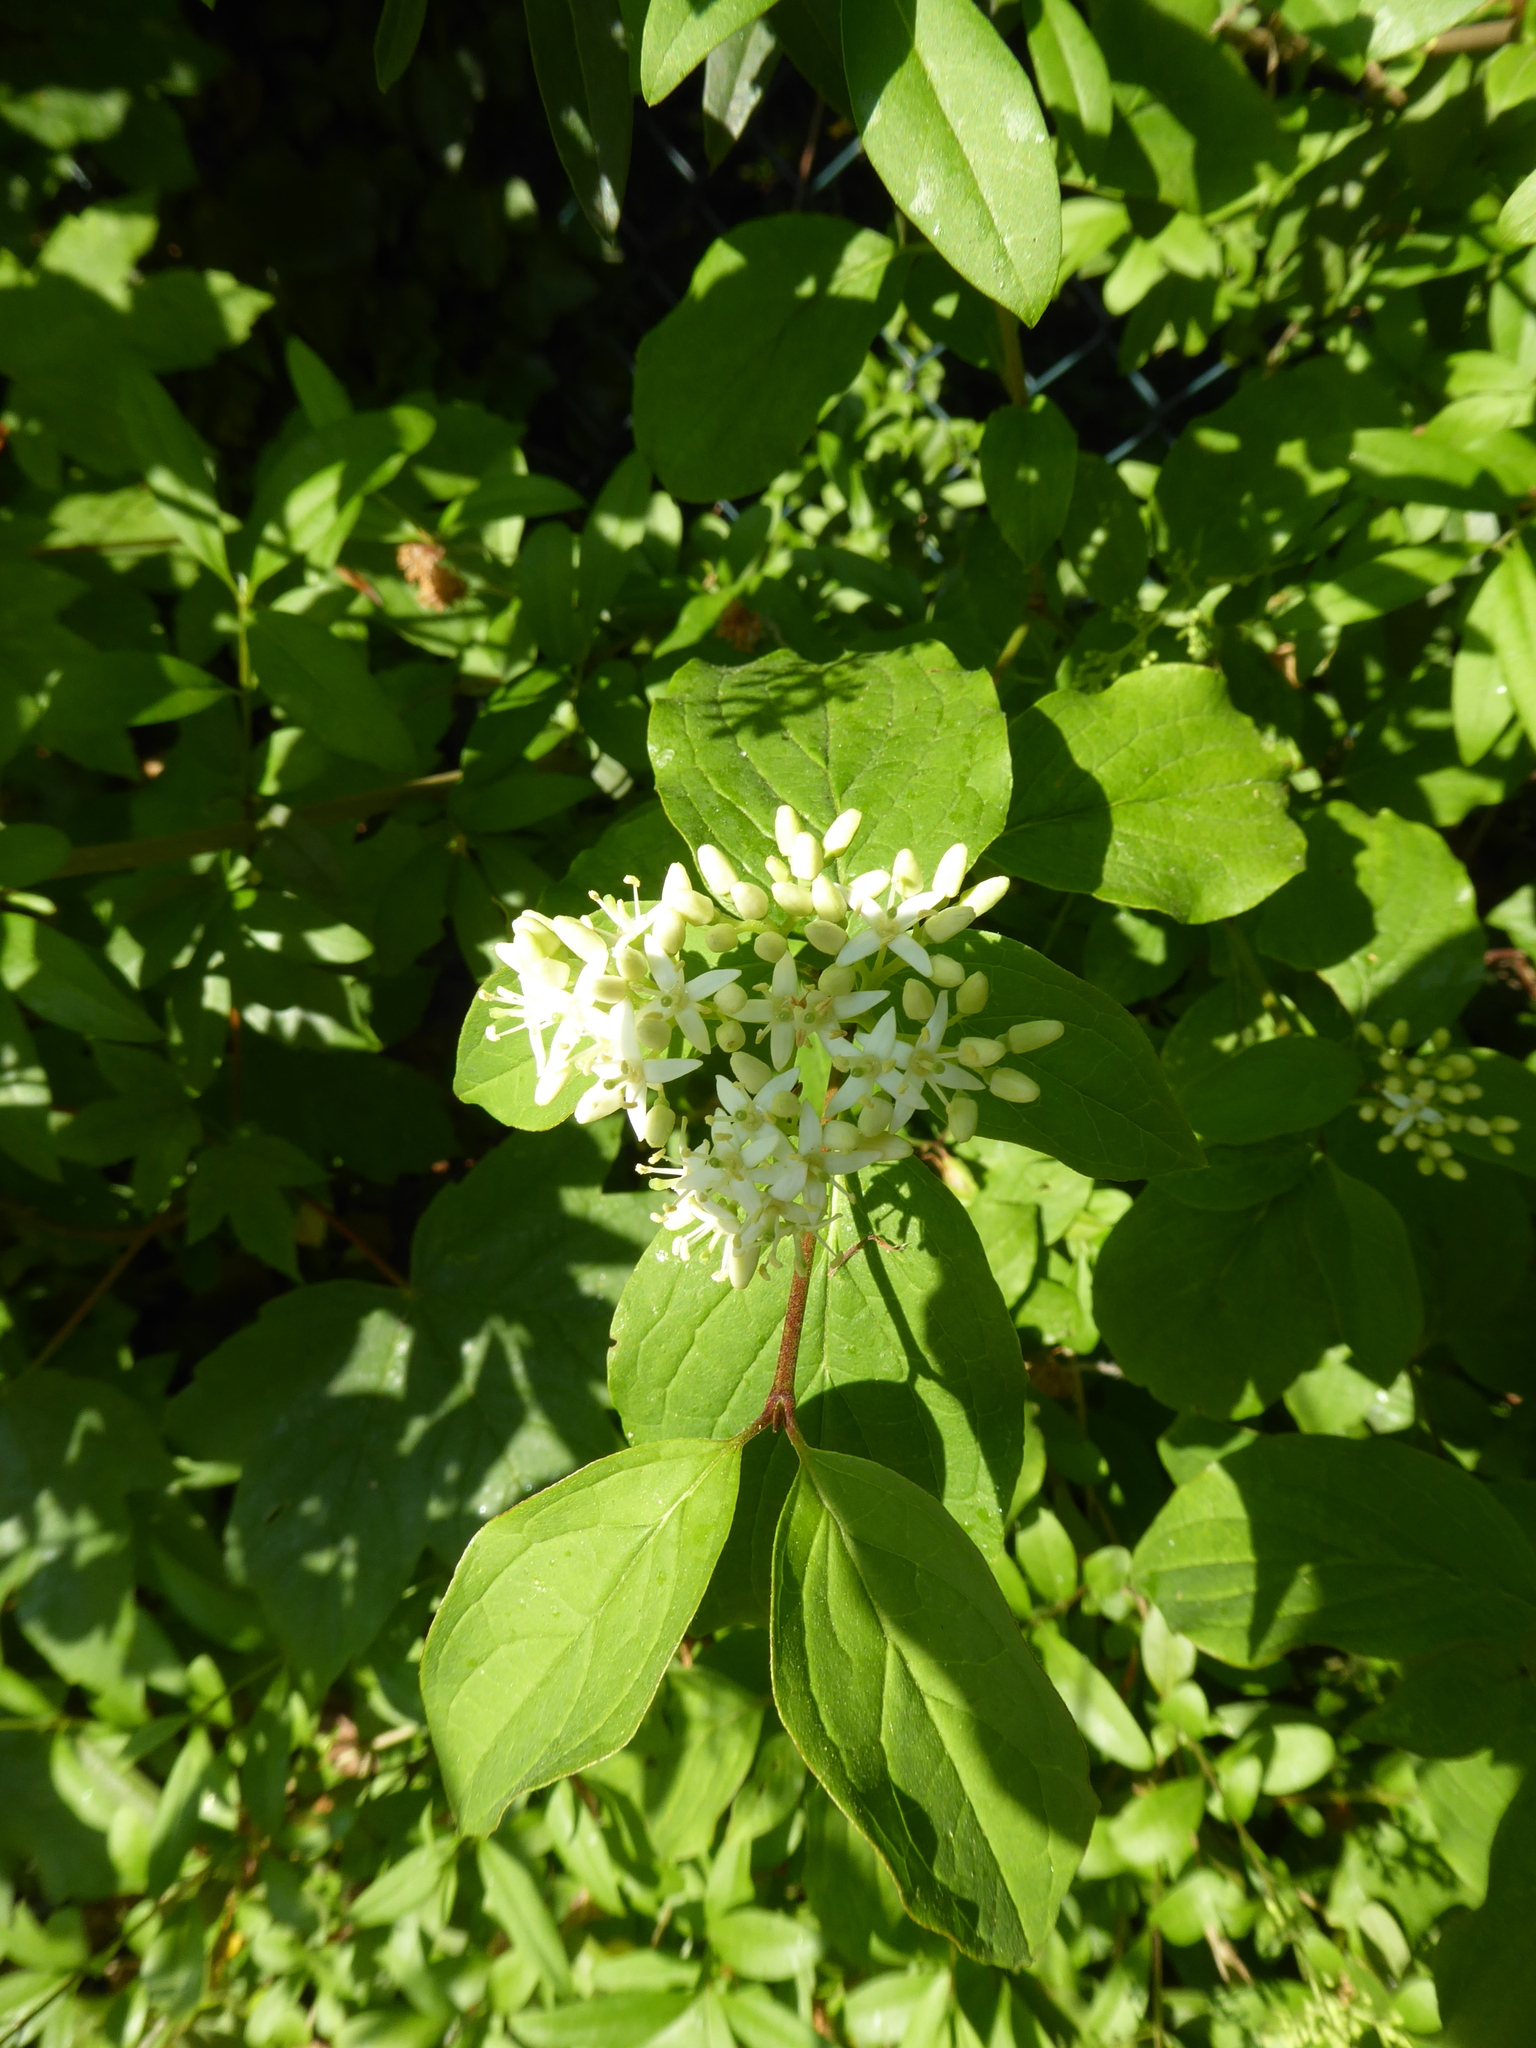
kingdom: Plantae
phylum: Tracheophyta
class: Magnoliopsida
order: Cornales
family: Cornaceae
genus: Cornus
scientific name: Cornus sanguinea
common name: Dogwood
